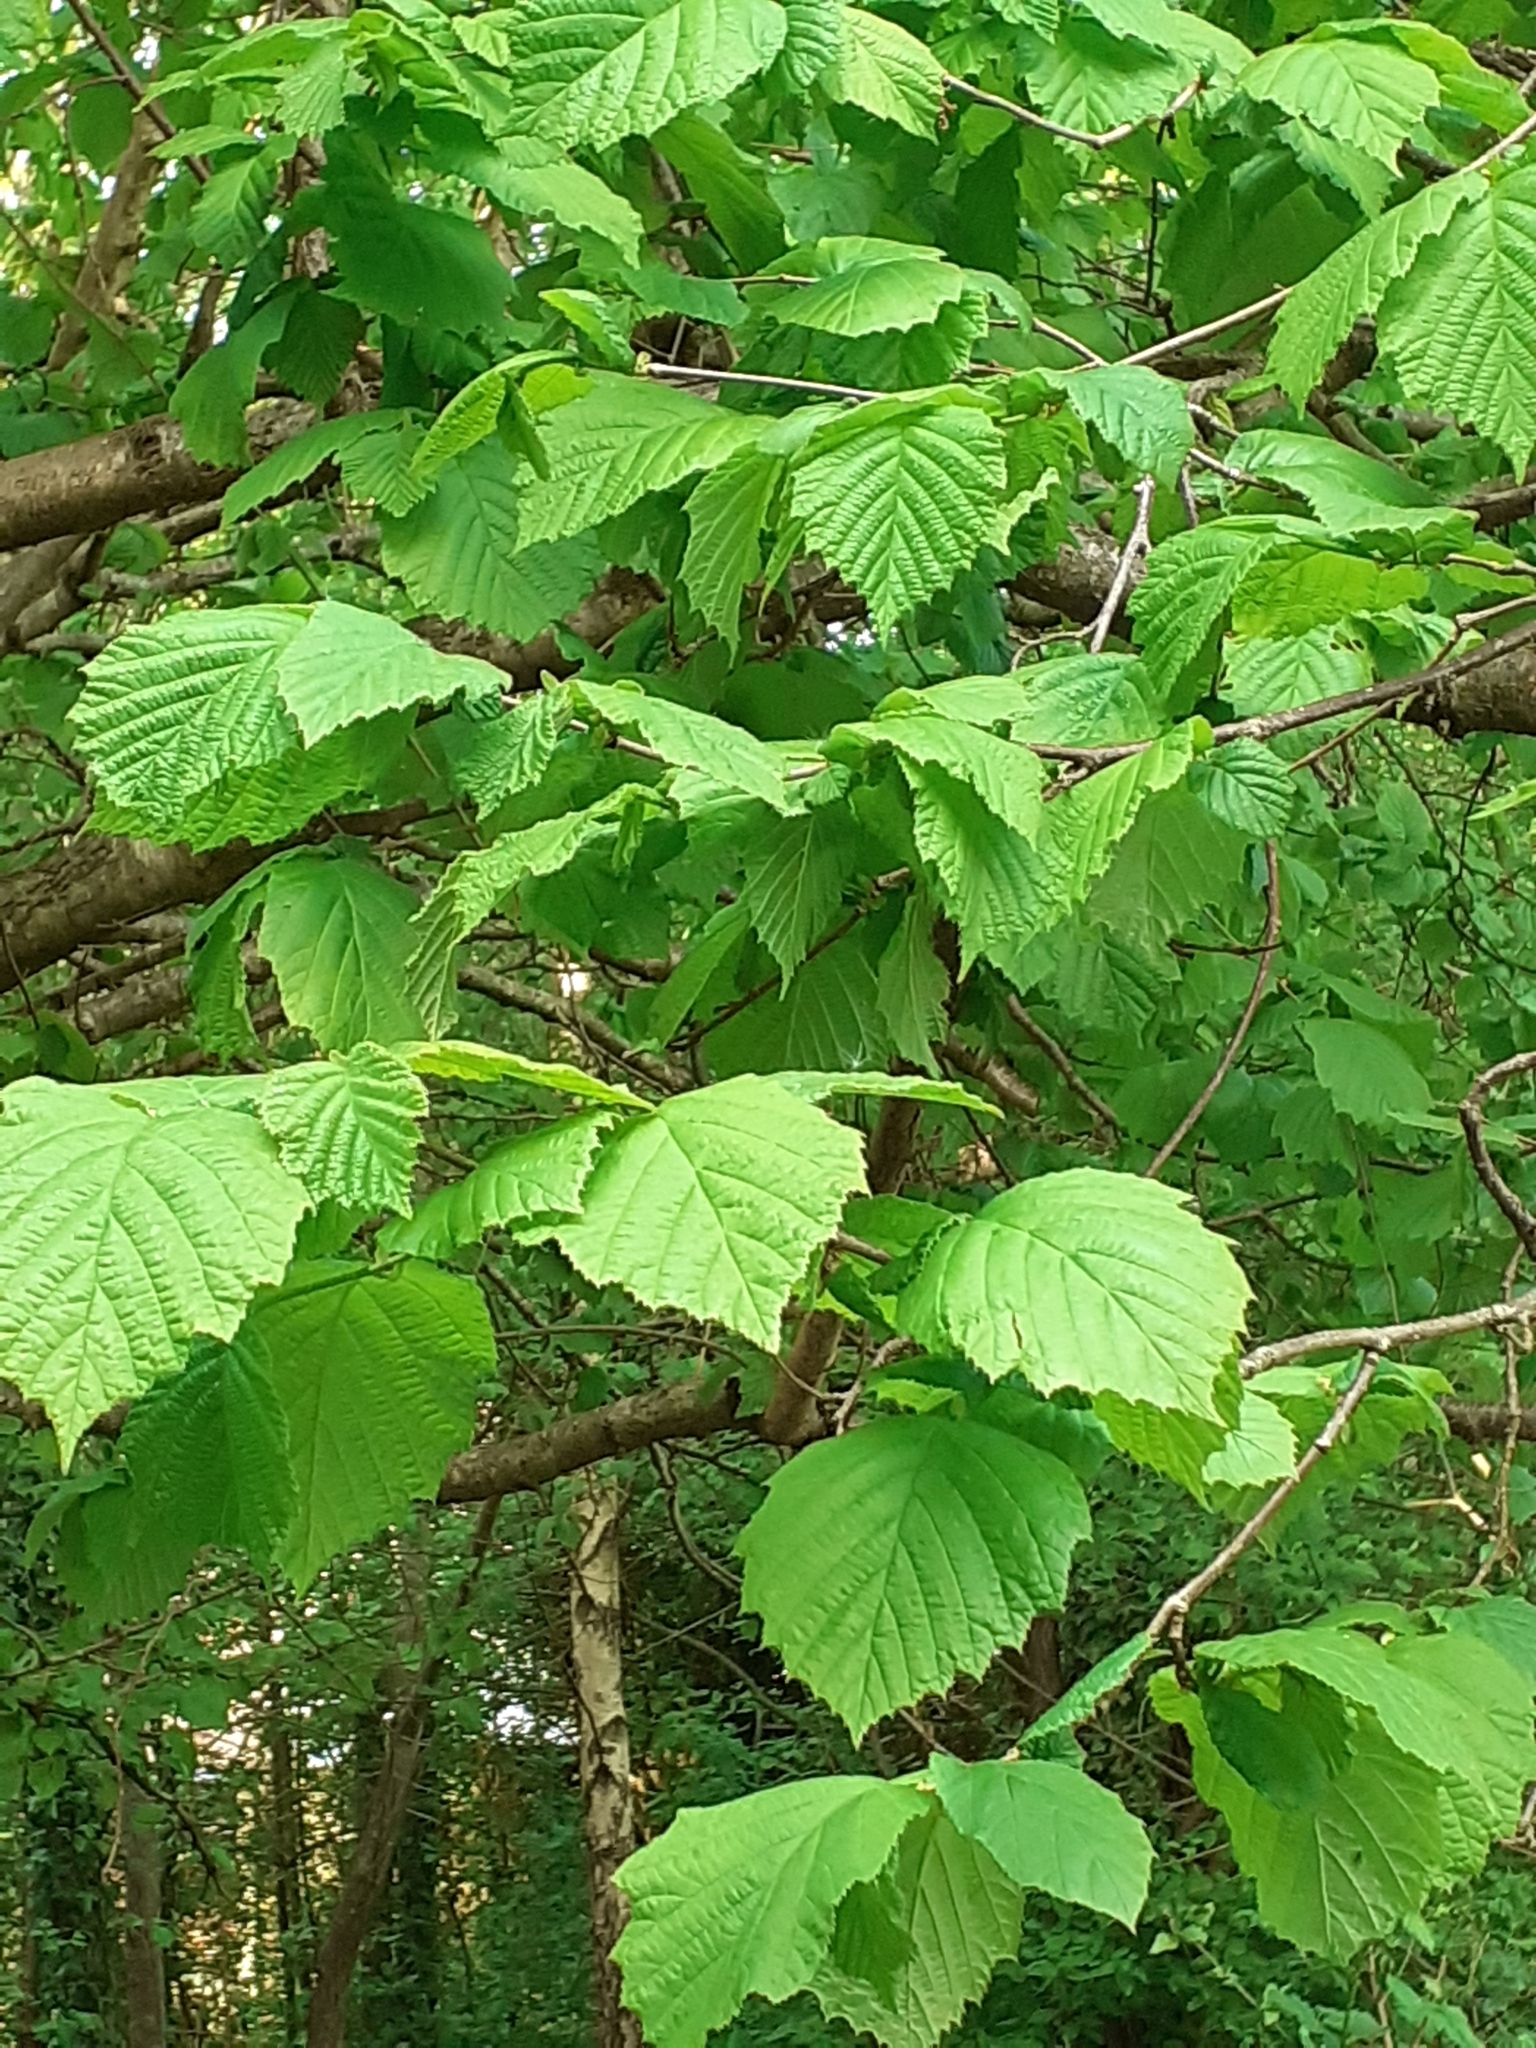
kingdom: Plantae
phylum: Tracheophyta
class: Magnoliopsida
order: Fagales
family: Betulaceae
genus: Corylus
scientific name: Corylus avellana
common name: European hazel
